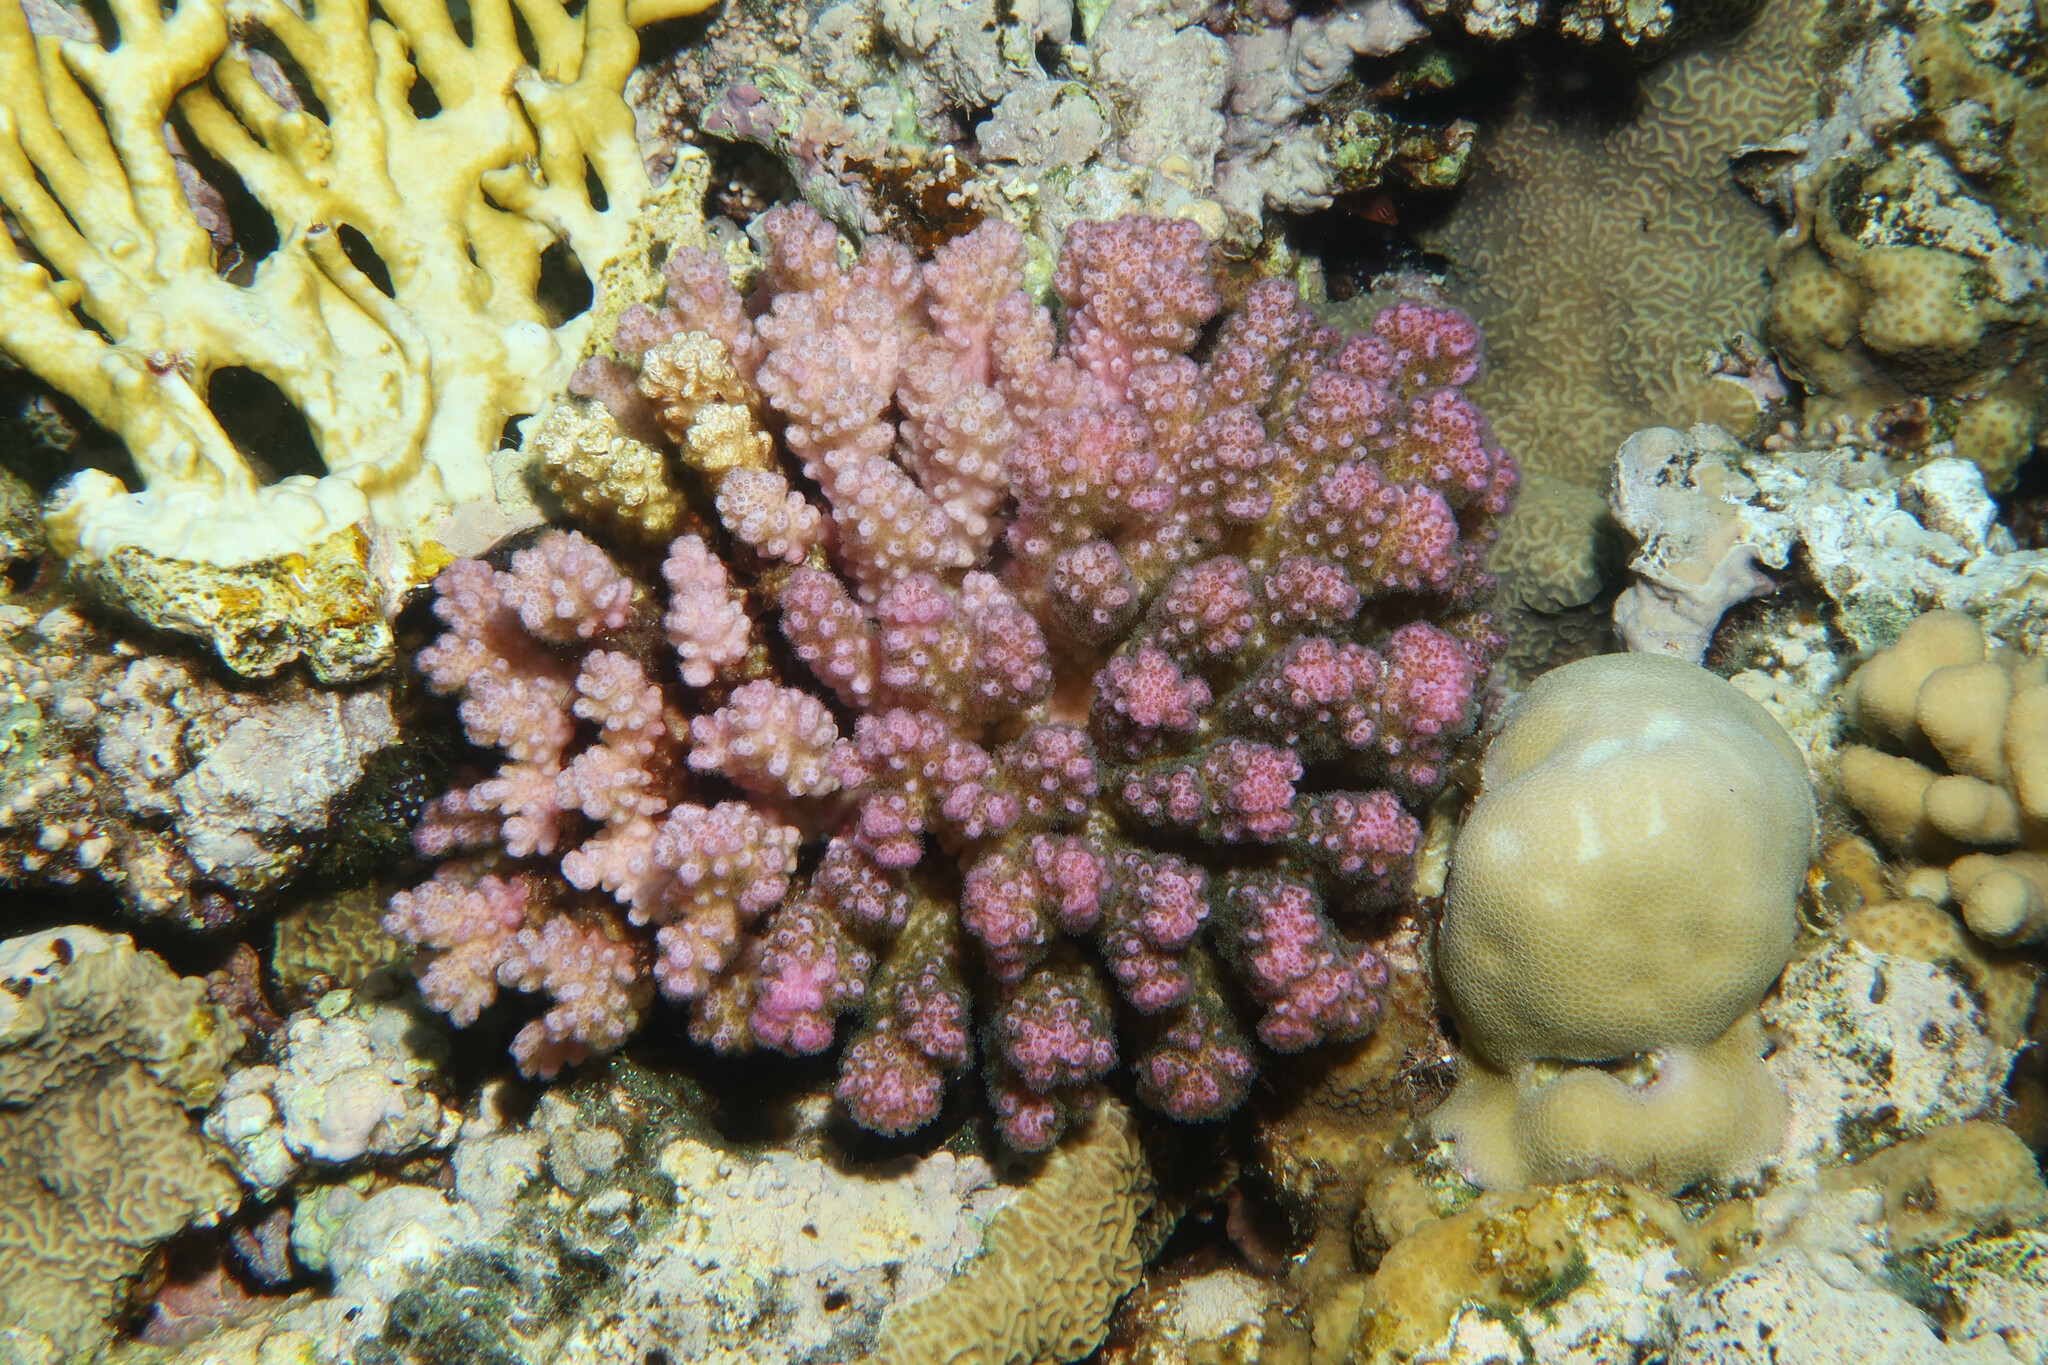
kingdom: Animalia
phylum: Cnidaria
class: Anthozoa
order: Scleractinia
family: Pocilloporidae
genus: Pocillopora
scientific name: Pocillopora verrucosa
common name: Cauliflower coral
